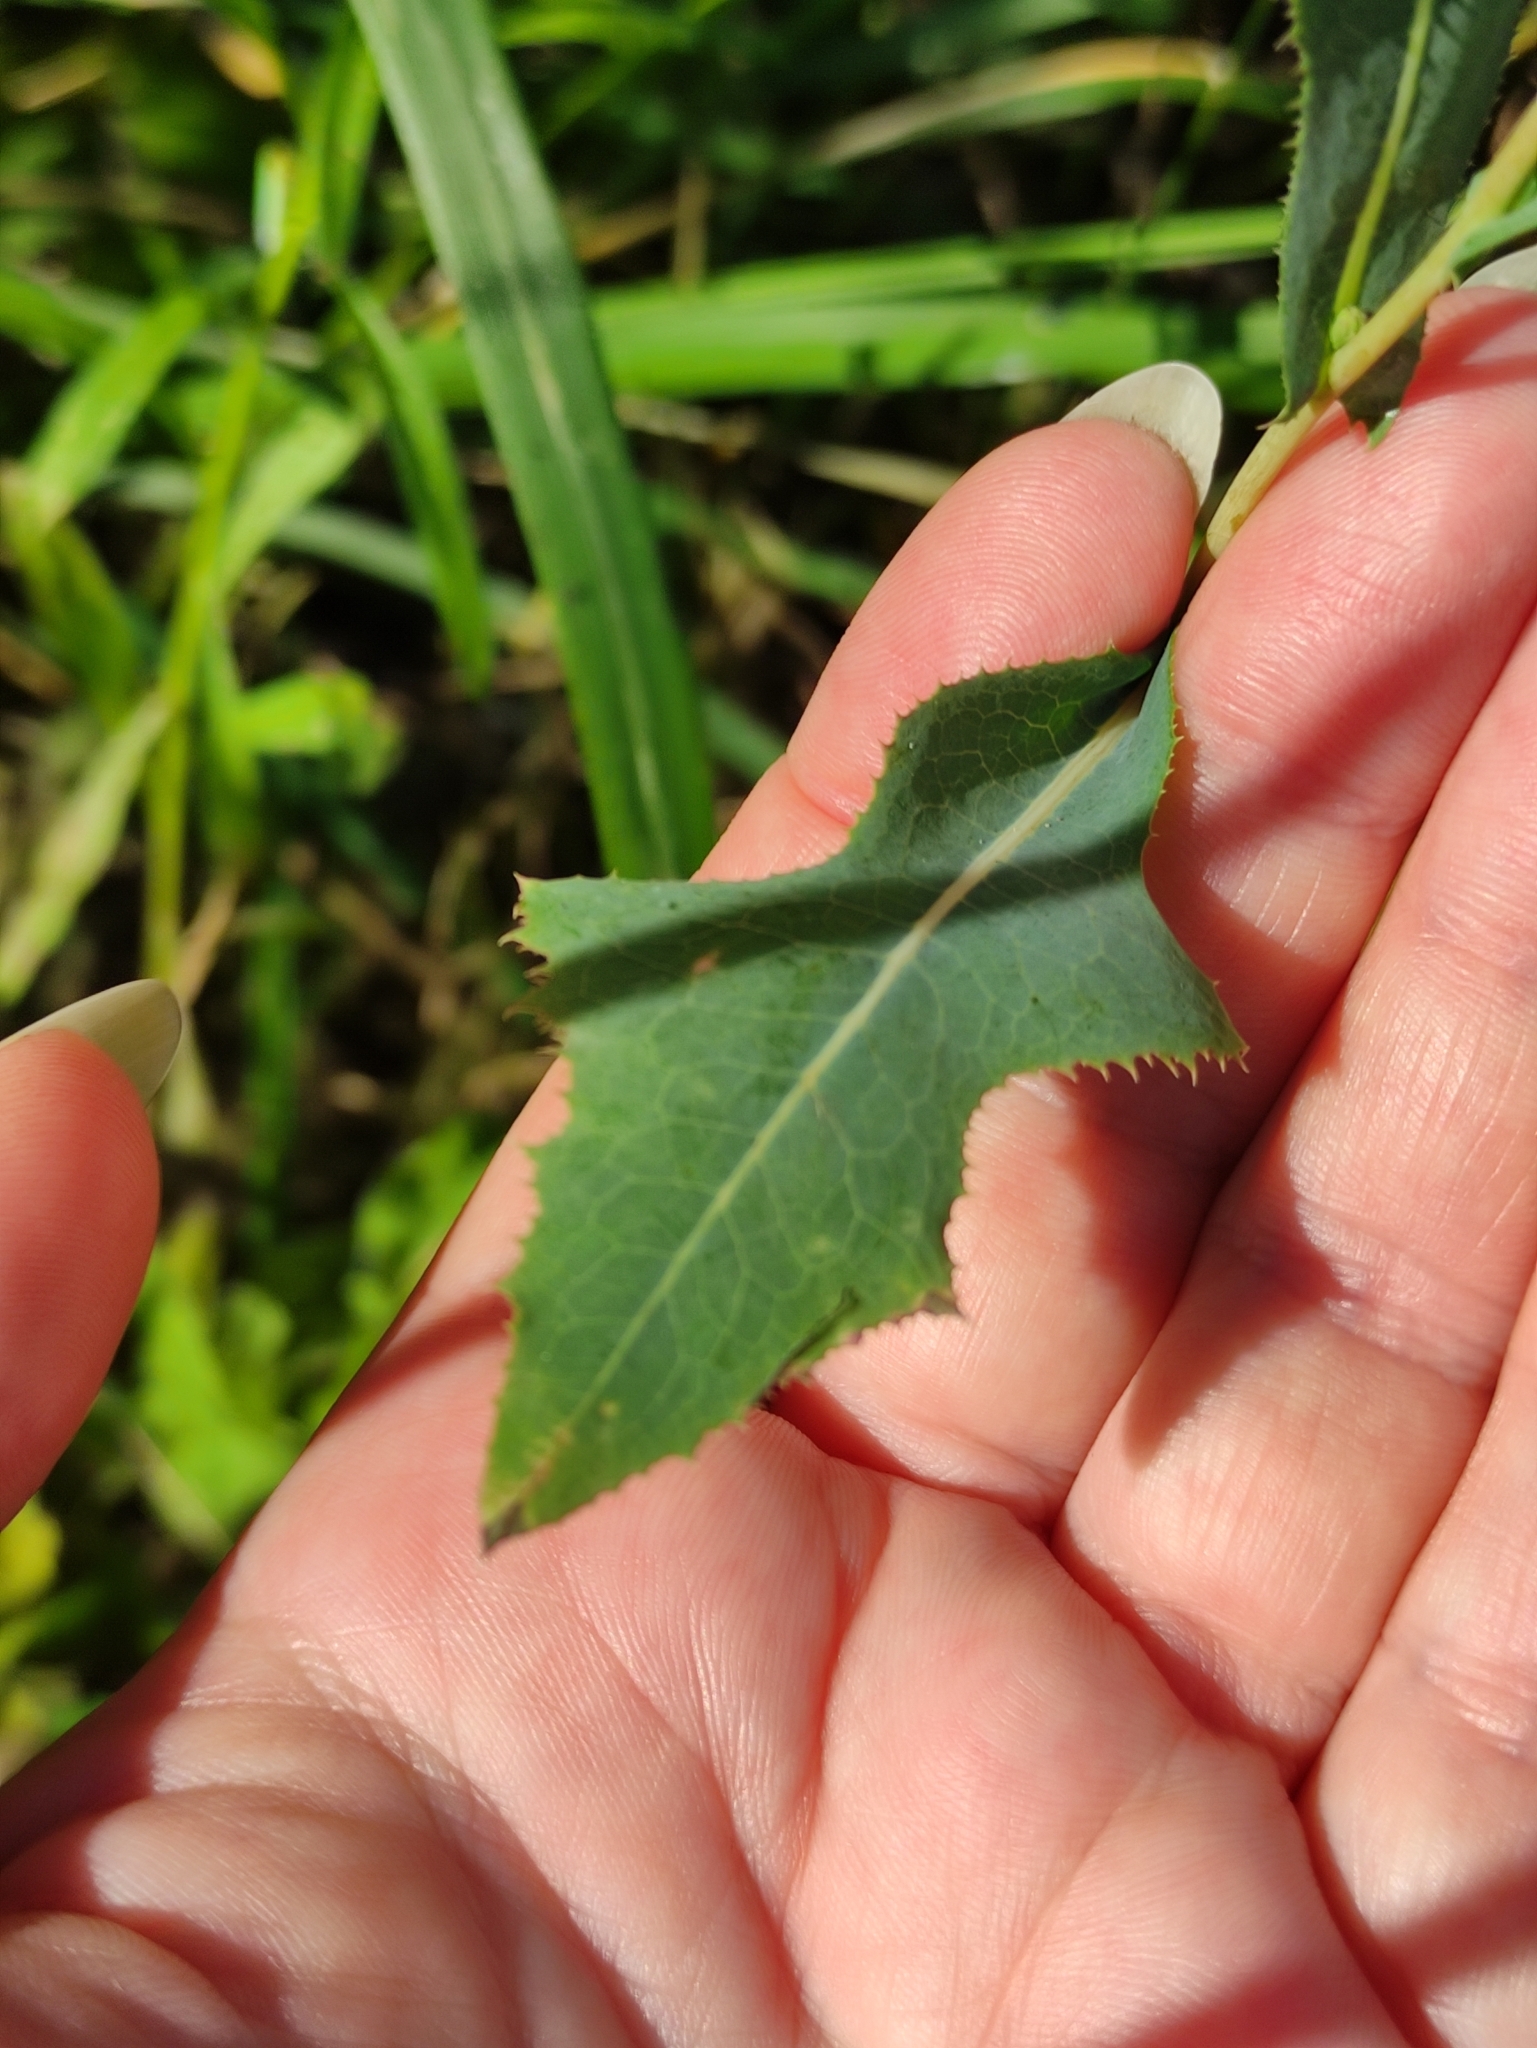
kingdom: Plantae
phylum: Tracheophyta
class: Magnoliopsida
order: Asterales
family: Asteraceae
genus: Lactuca
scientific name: Lactuca serriola
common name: Prickly lettuce
